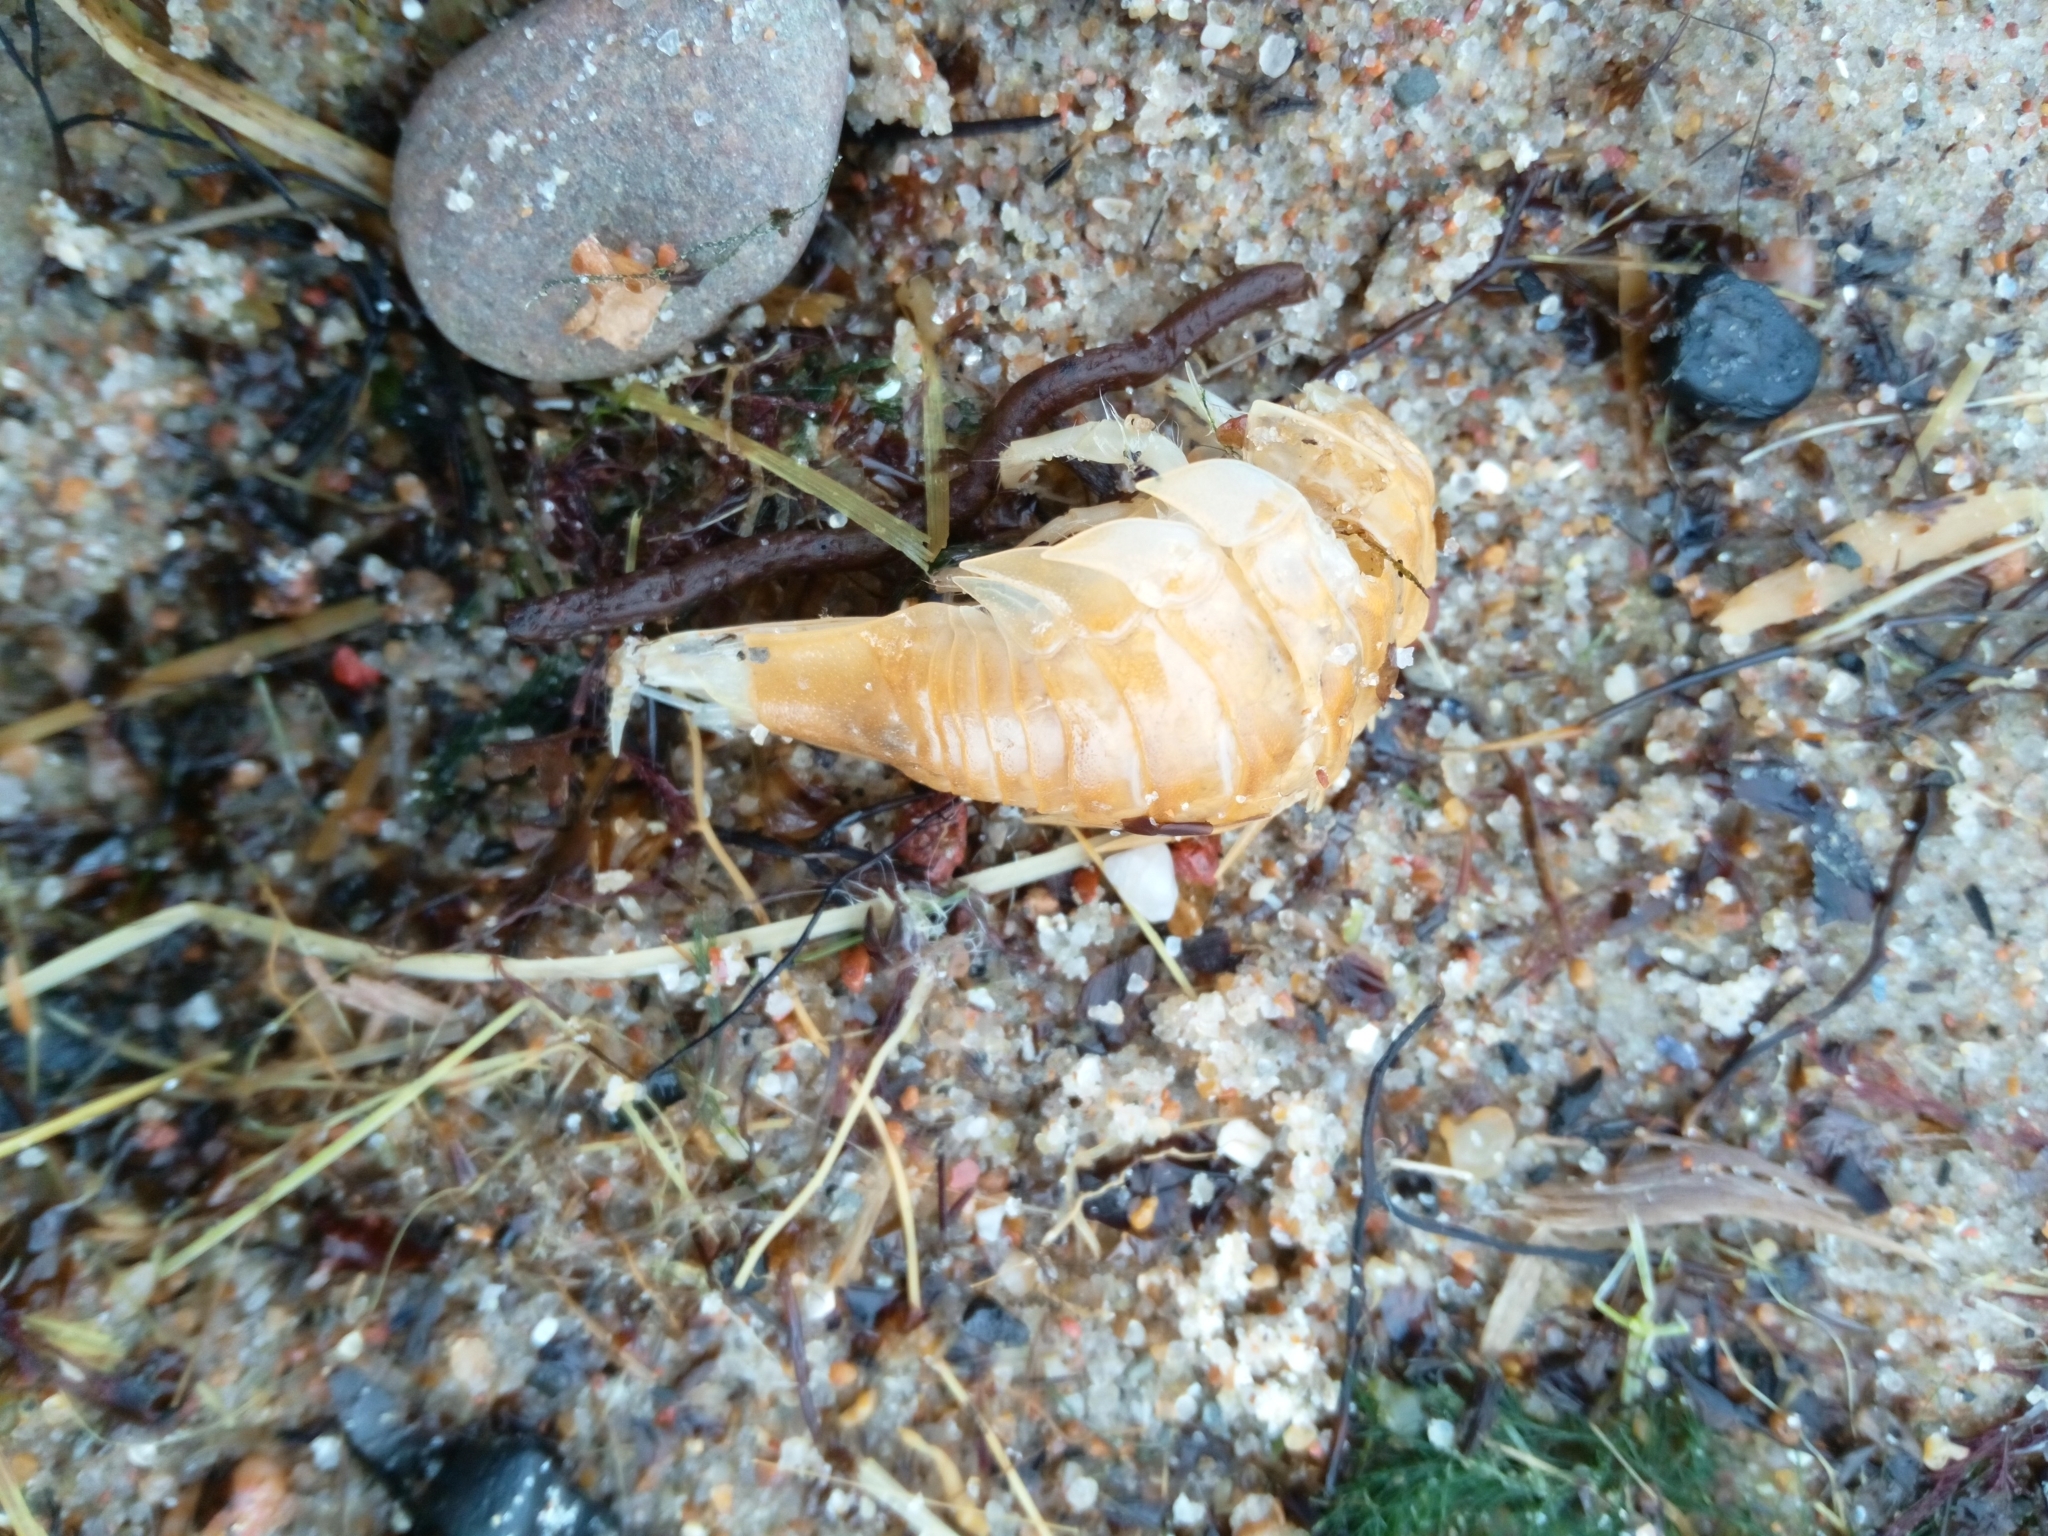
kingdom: Animalia
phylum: Arthropoda
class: Malacostraca
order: Isopoda
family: Chaetiliidae
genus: Saduria
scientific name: Saduria entomon
